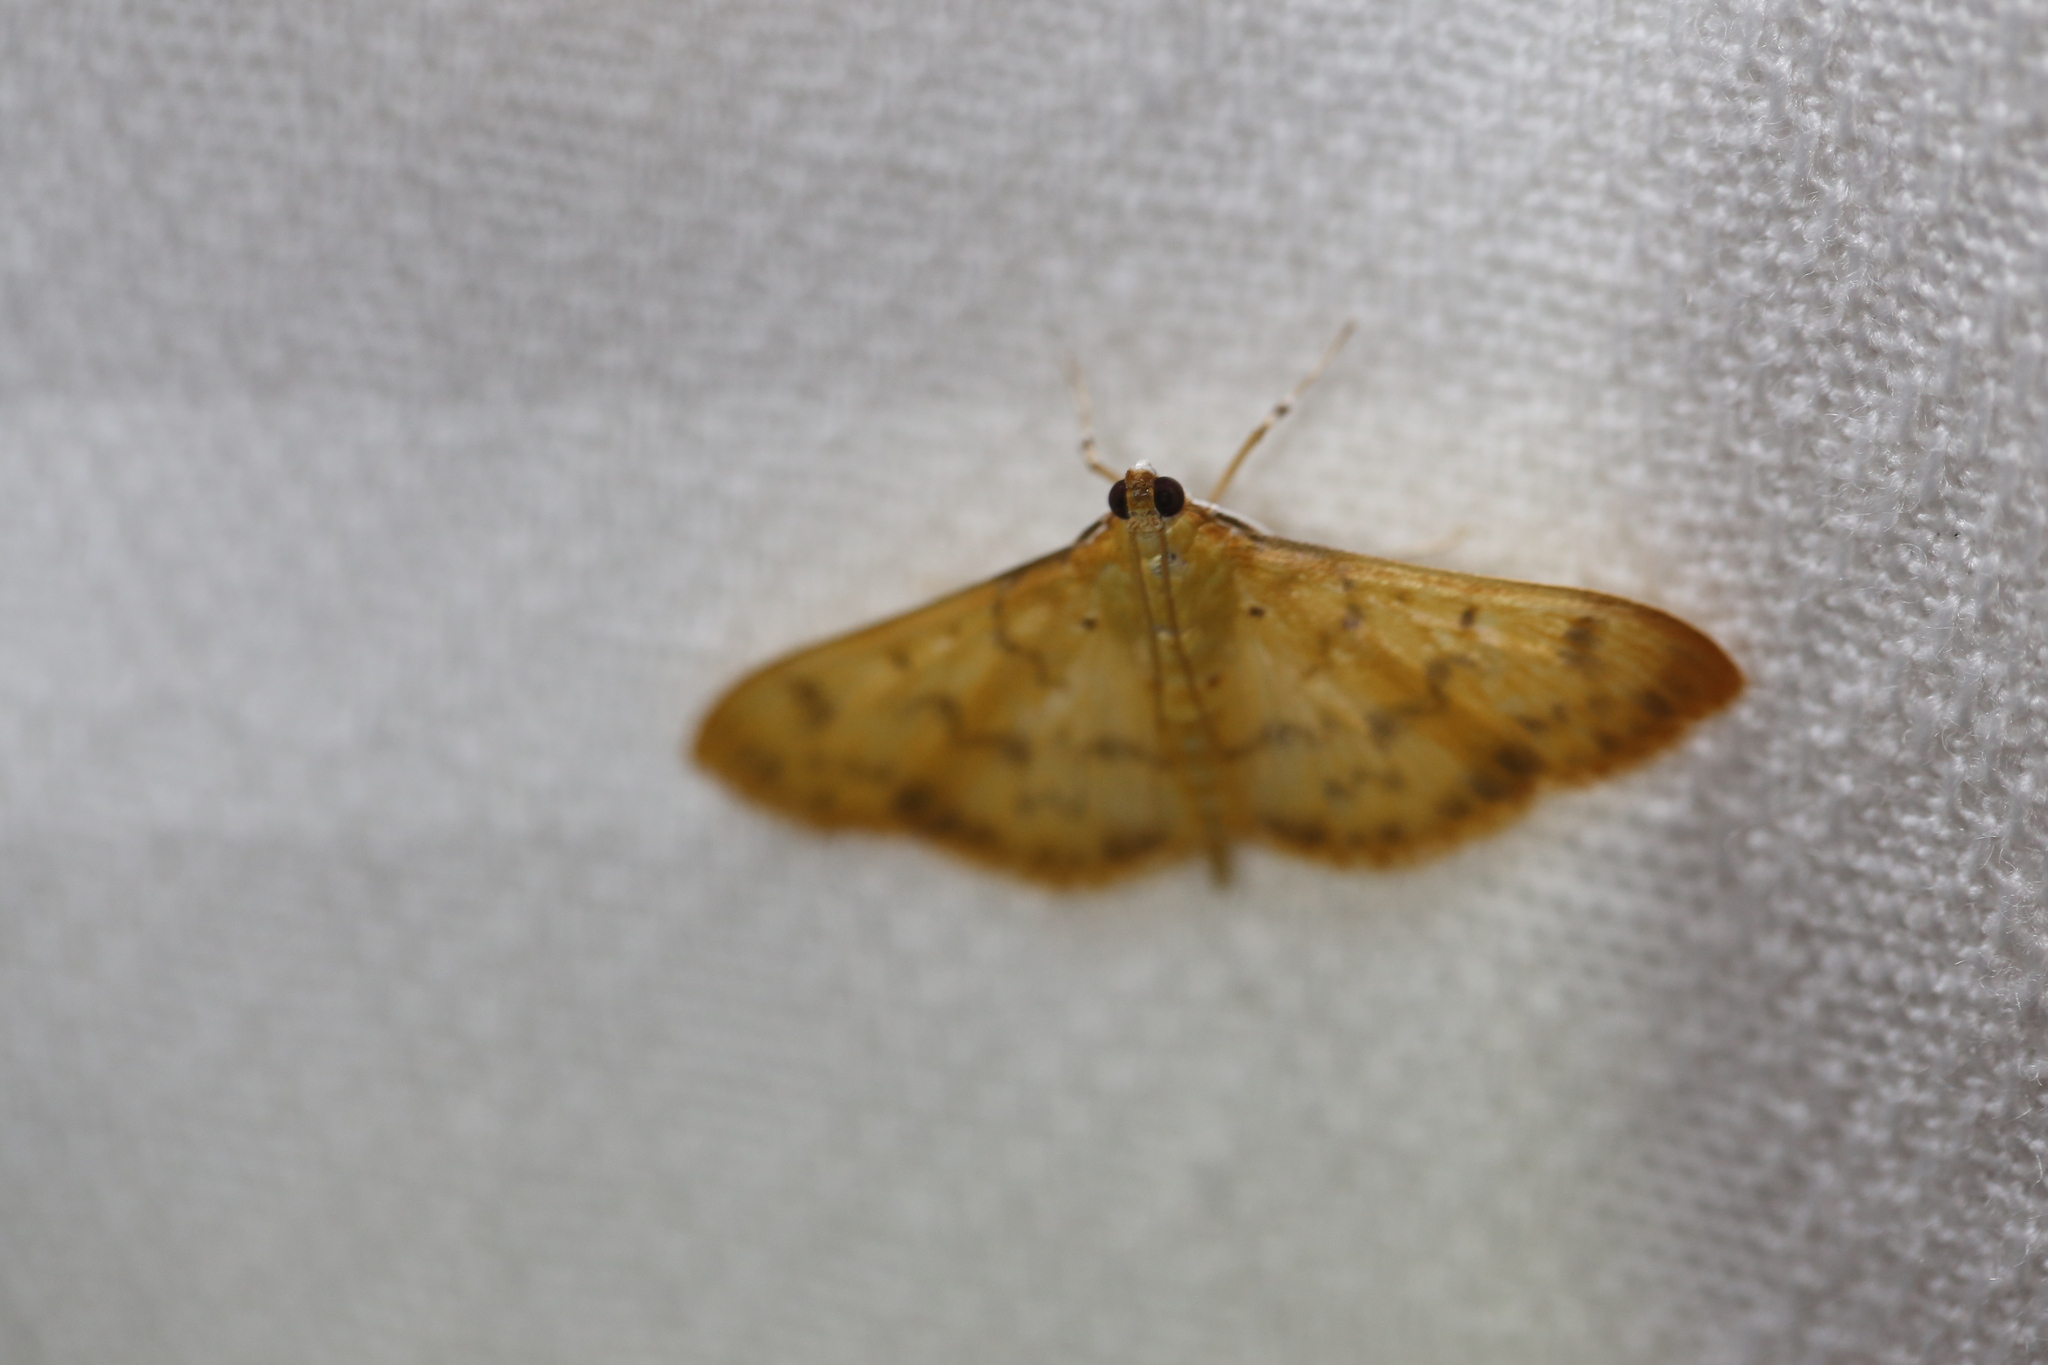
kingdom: Animalia
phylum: Arthropoda
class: Insecta
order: Lepidoptera
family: Crambidae
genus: Pleuroptya
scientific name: Pleuroptya balteata
